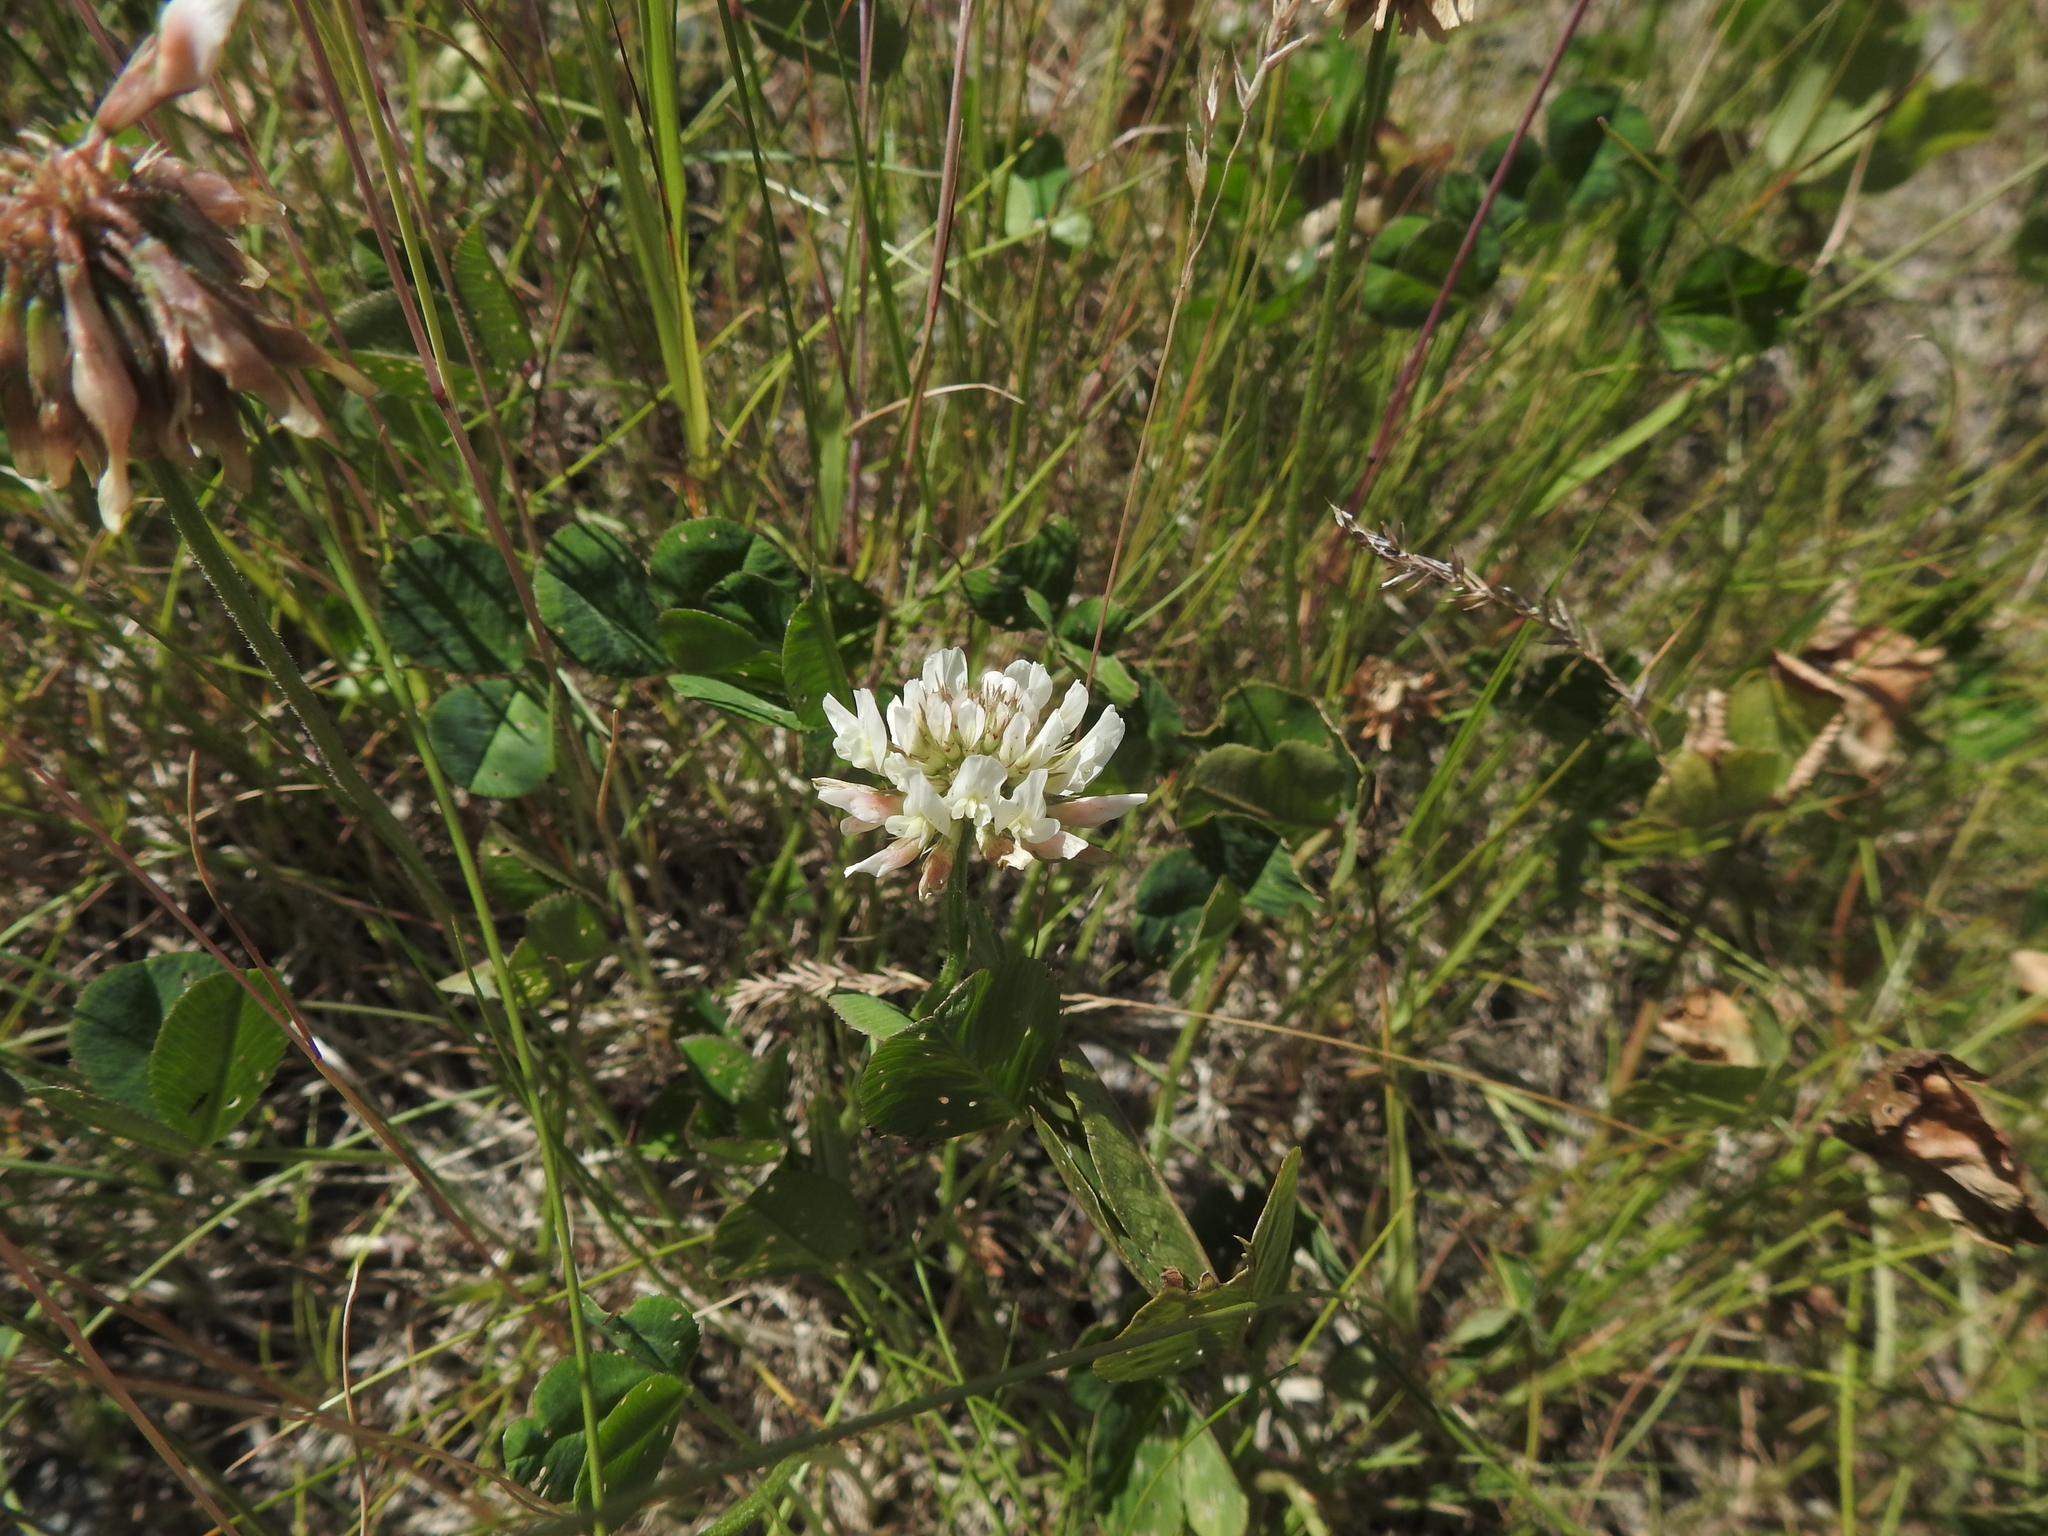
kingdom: Plantae
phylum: Tracheophyta
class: Magnoliopsida
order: Fabales
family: Fabaceae
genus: Trifolium
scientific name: Trifolium repens
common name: White clover
